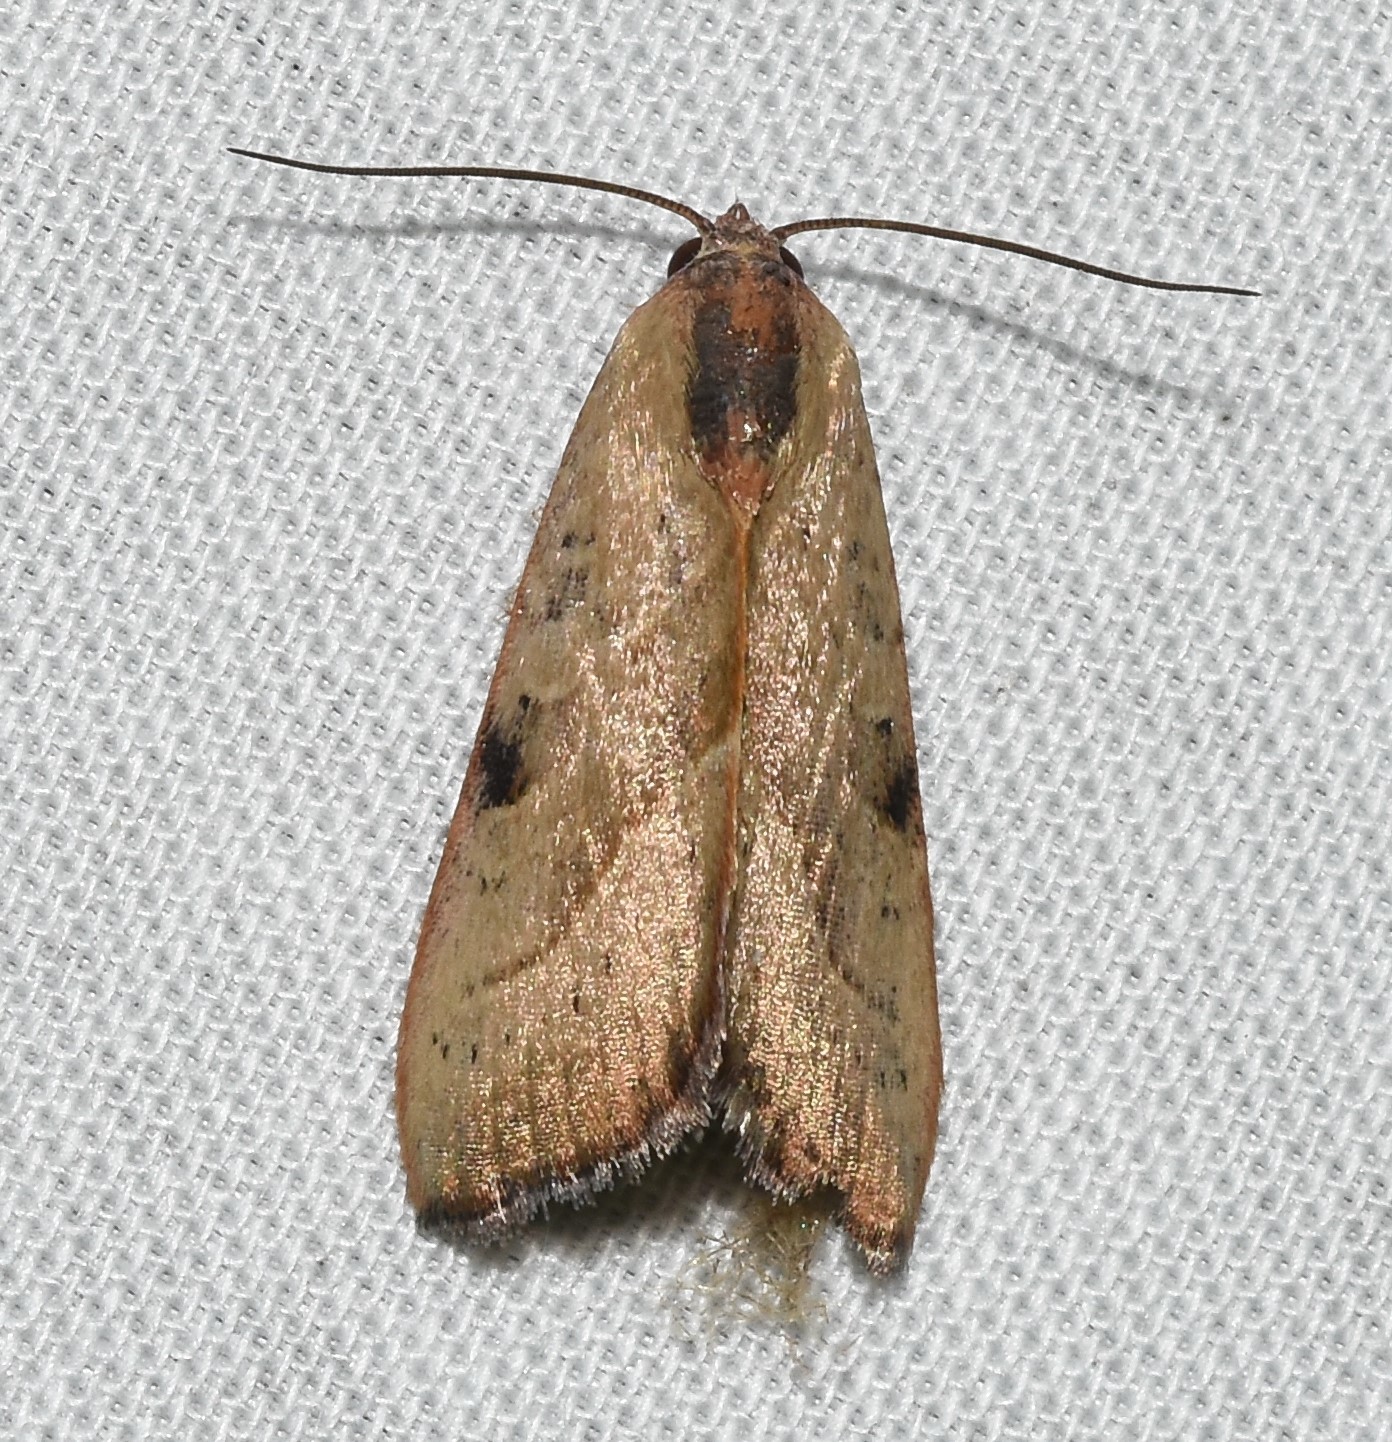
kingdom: Animalia
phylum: Arthropoda
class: Insecta
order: Lepidoptera
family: Noctuidae
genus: Galgula
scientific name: Galgula partita
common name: Wedgeling
